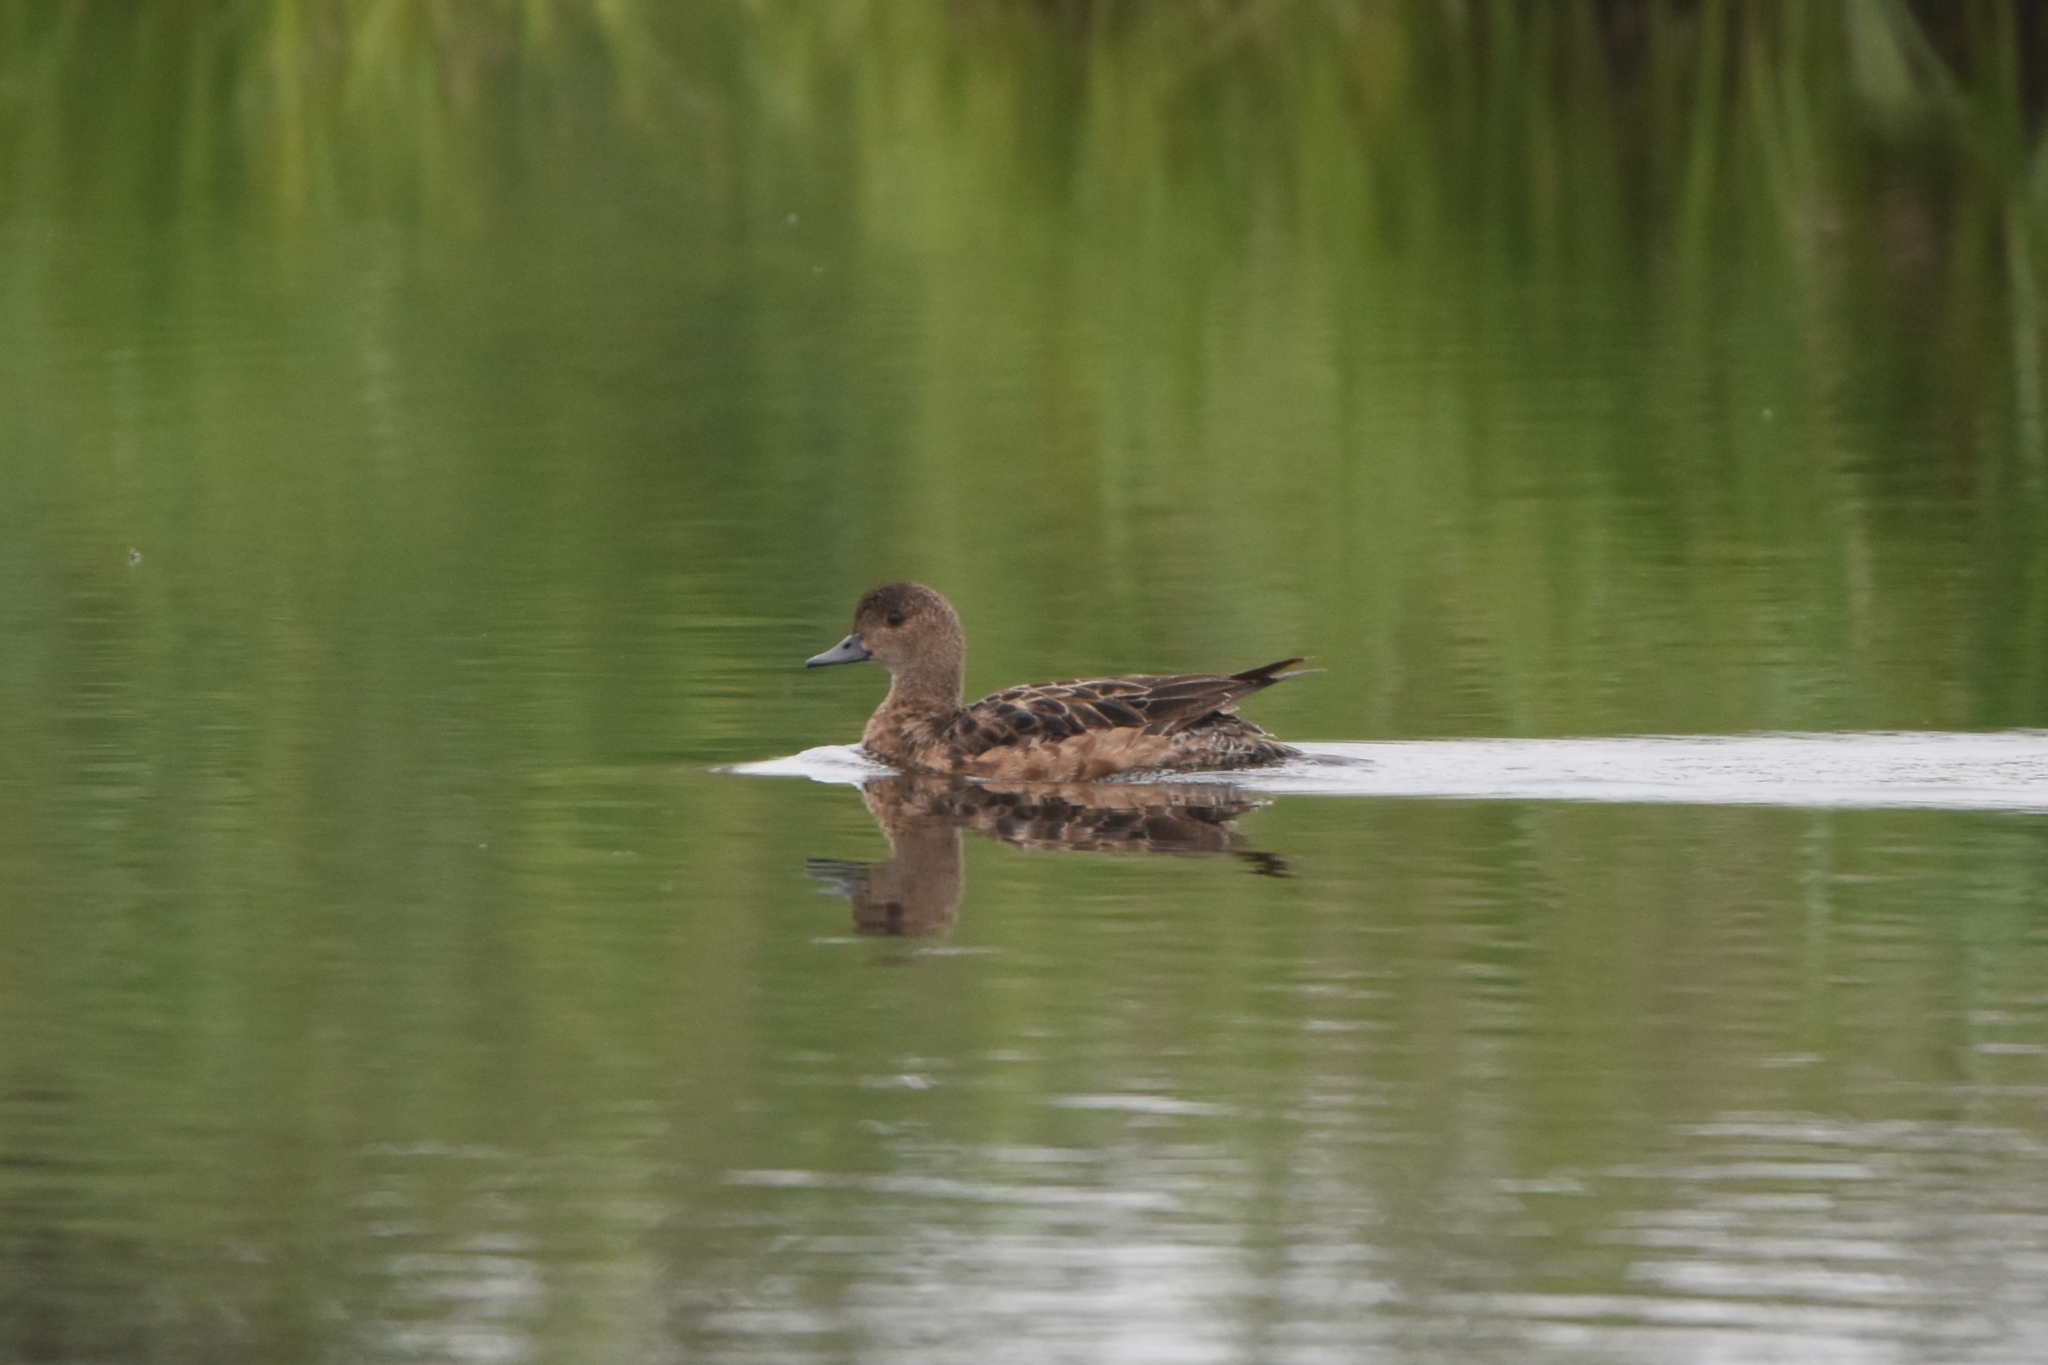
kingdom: Animalia
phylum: Chordata
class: Aves
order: Anseriformes
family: Anatidae
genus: Mareca
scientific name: Mareca penelope
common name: Eurasian wigeon
